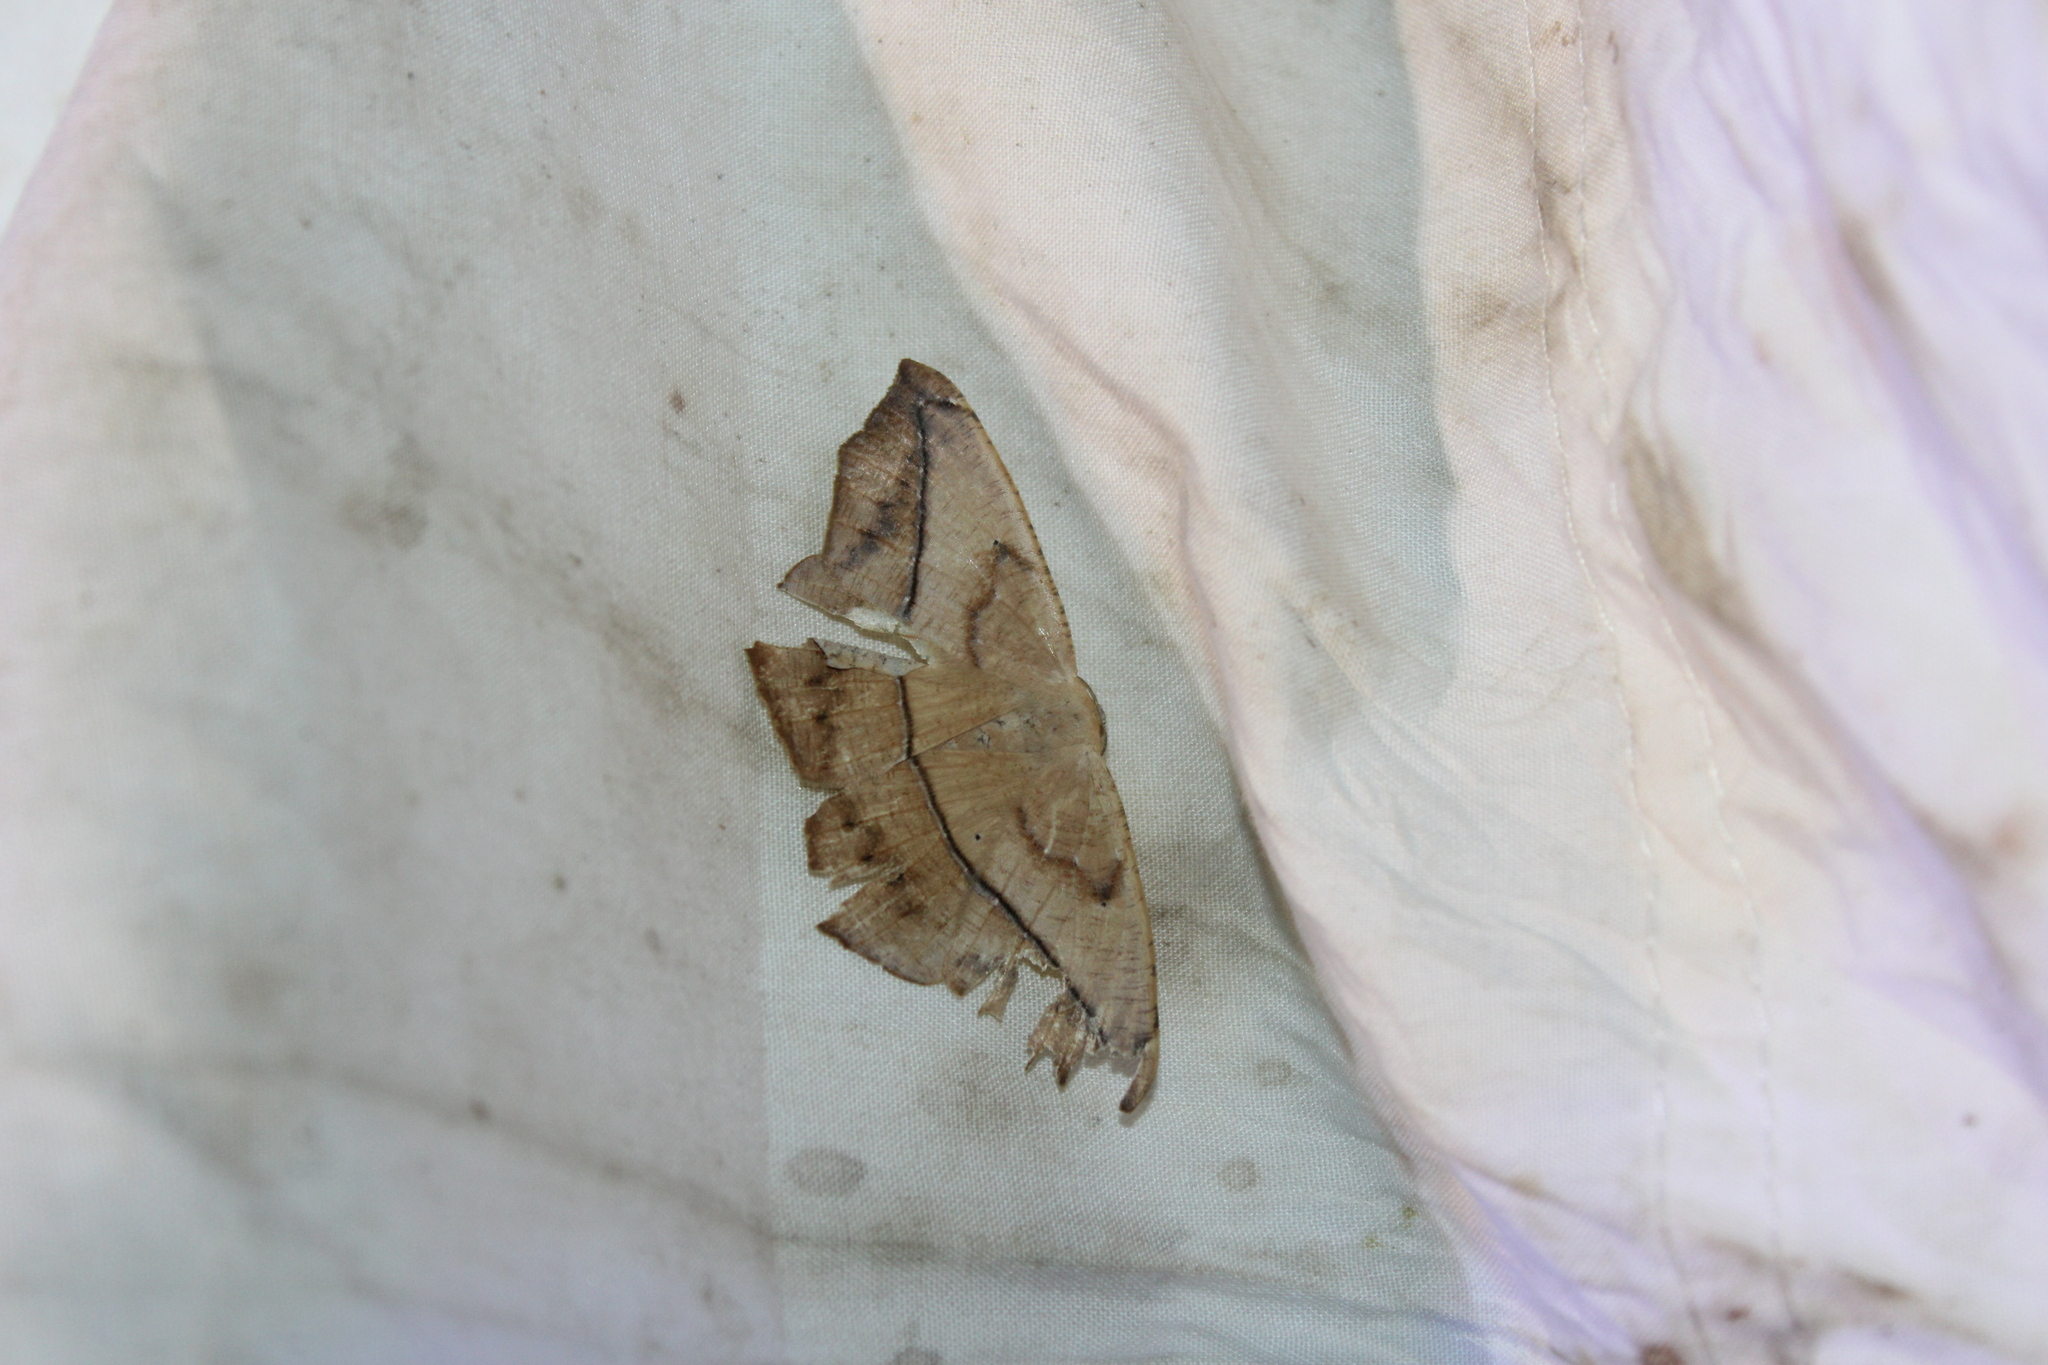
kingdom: Animalia
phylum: Arthropoda
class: Insecta
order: Lepidoptera
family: Geometridae
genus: Prochoerodes
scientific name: Prochoerodes lineola
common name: Large maple spanworm
